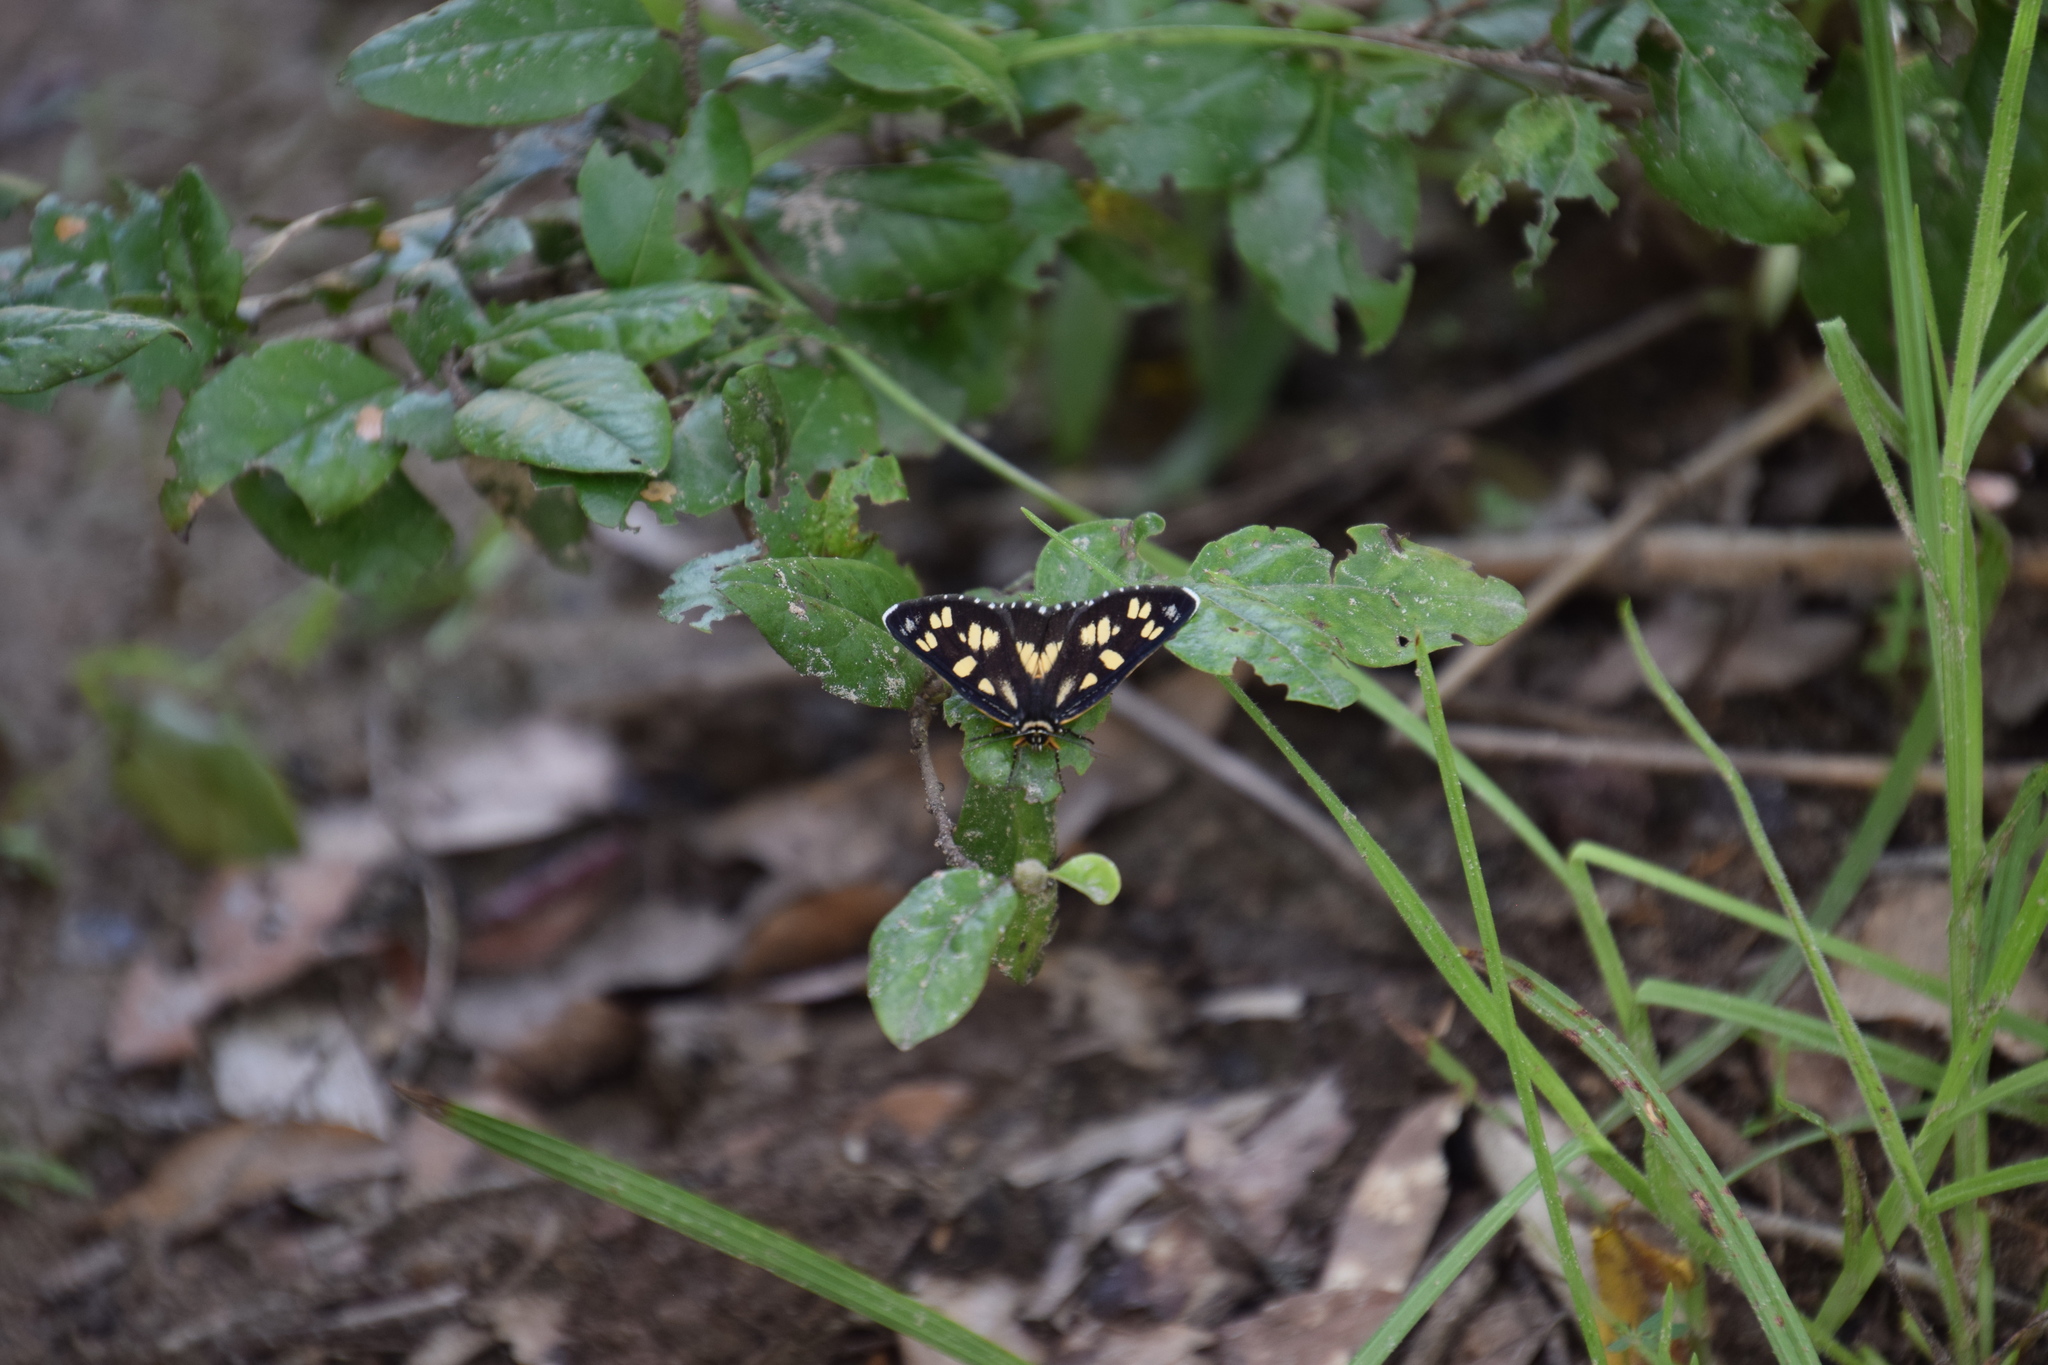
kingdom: Animalia
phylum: Arthropoda
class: Insecta
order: Lepidoptera
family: Noctuidae
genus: Cruria
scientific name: Cruria tropica
